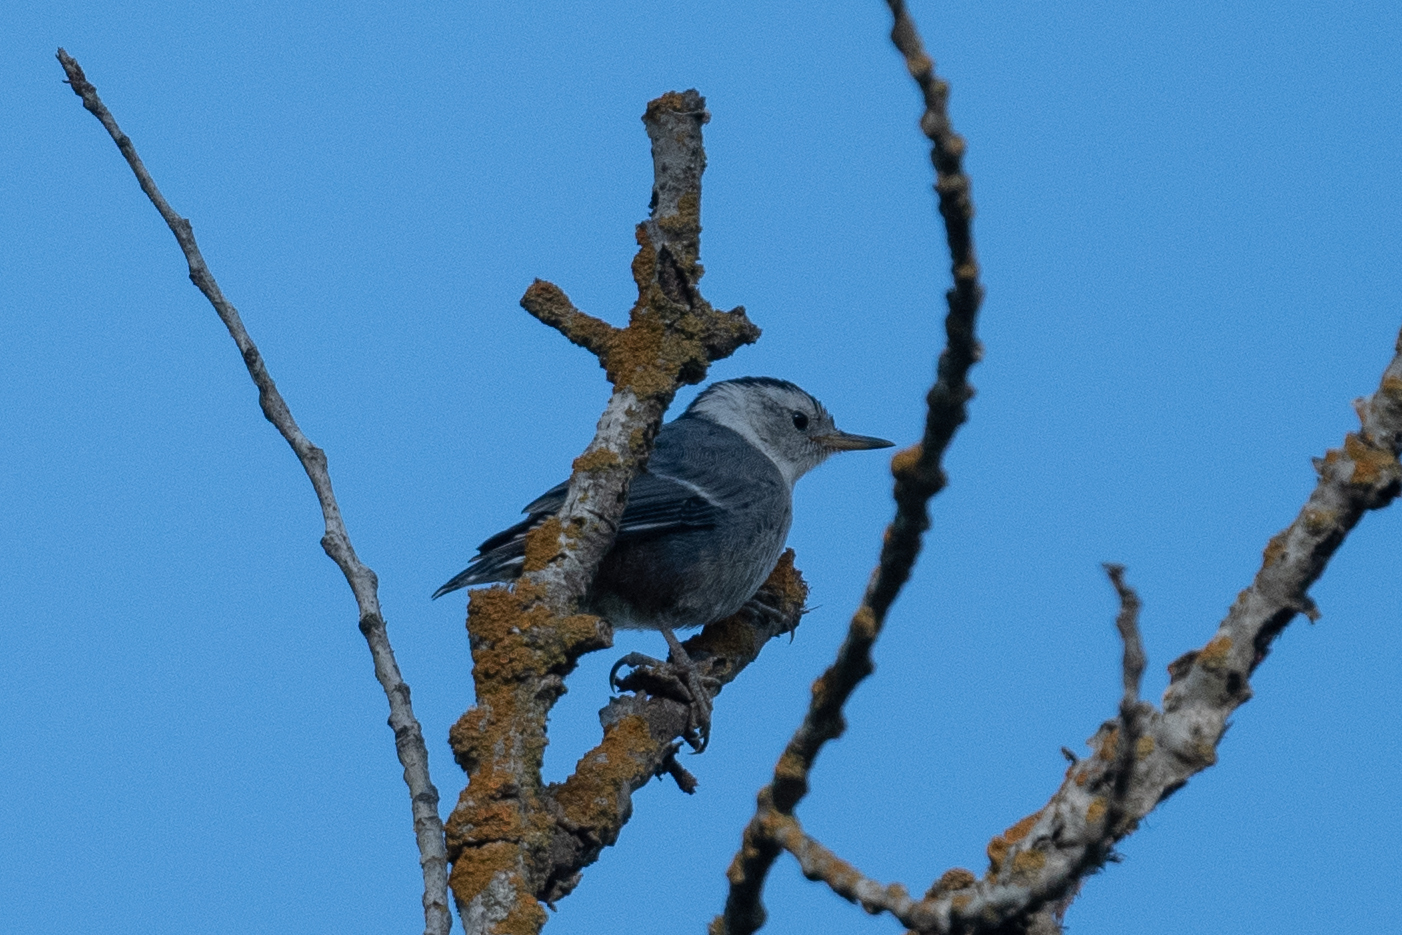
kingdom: Animalia
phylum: Chordata
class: Aves
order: Passeriformes
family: Sittidae
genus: Sitta
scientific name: Sitta carolinensis
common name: White-breasted nuthatch
